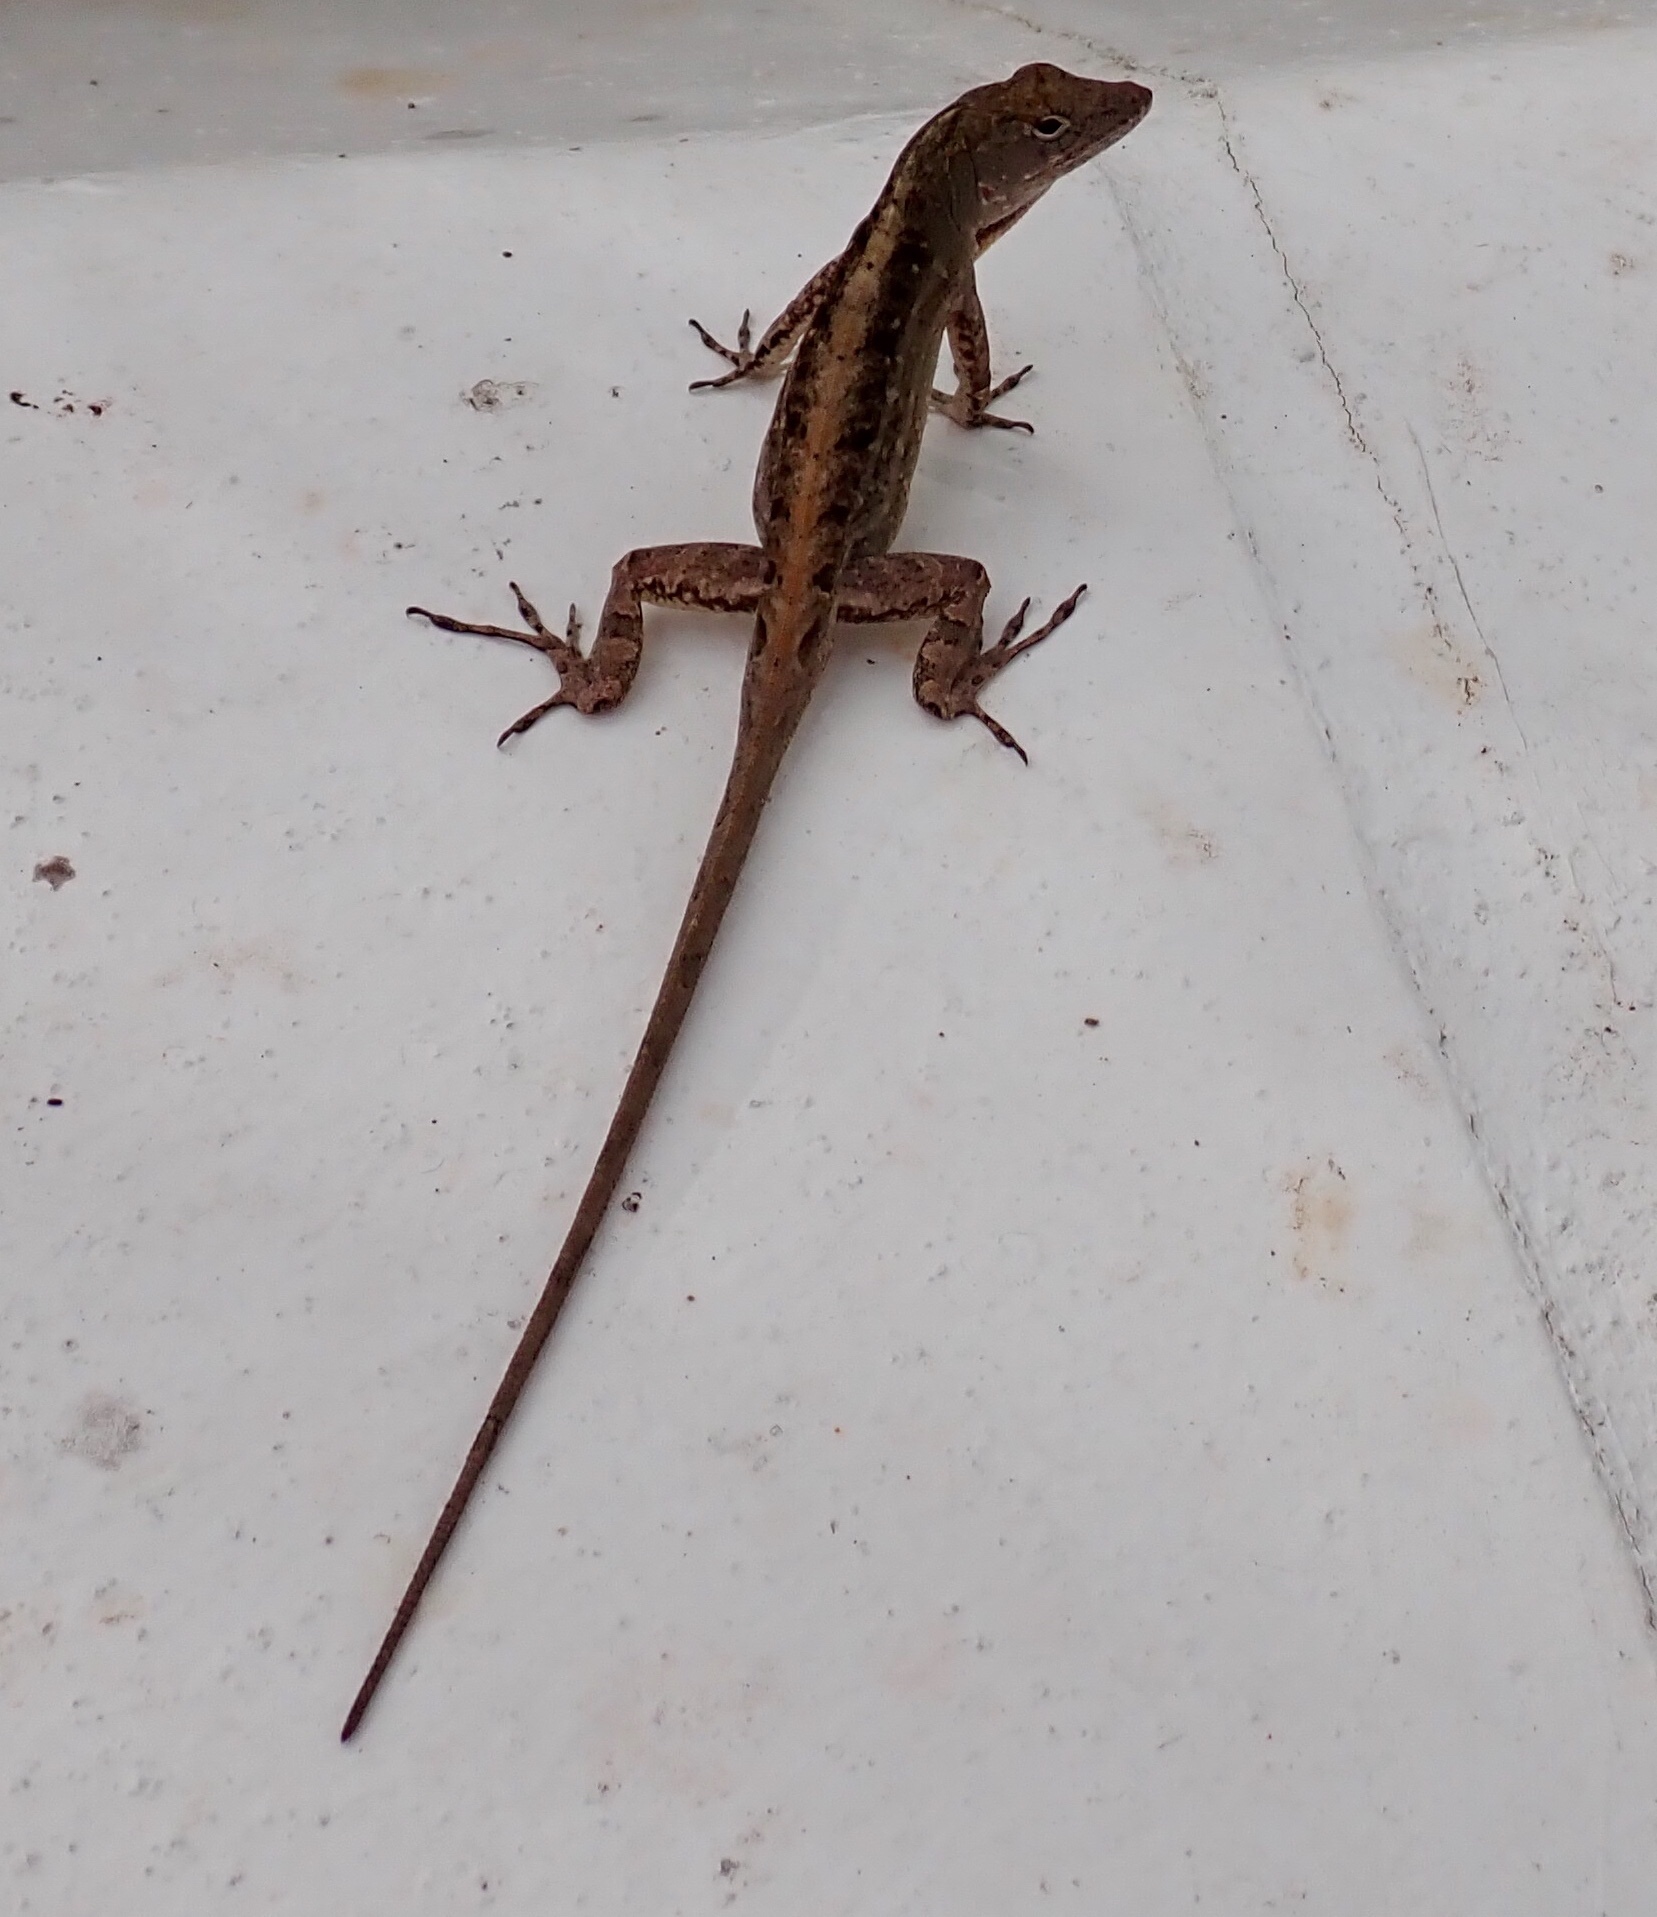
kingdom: Animalia
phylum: Chordata
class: Squamata
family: Dactyloidae
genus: Anolis
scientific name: Anolis sagrei
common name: Brown anole
